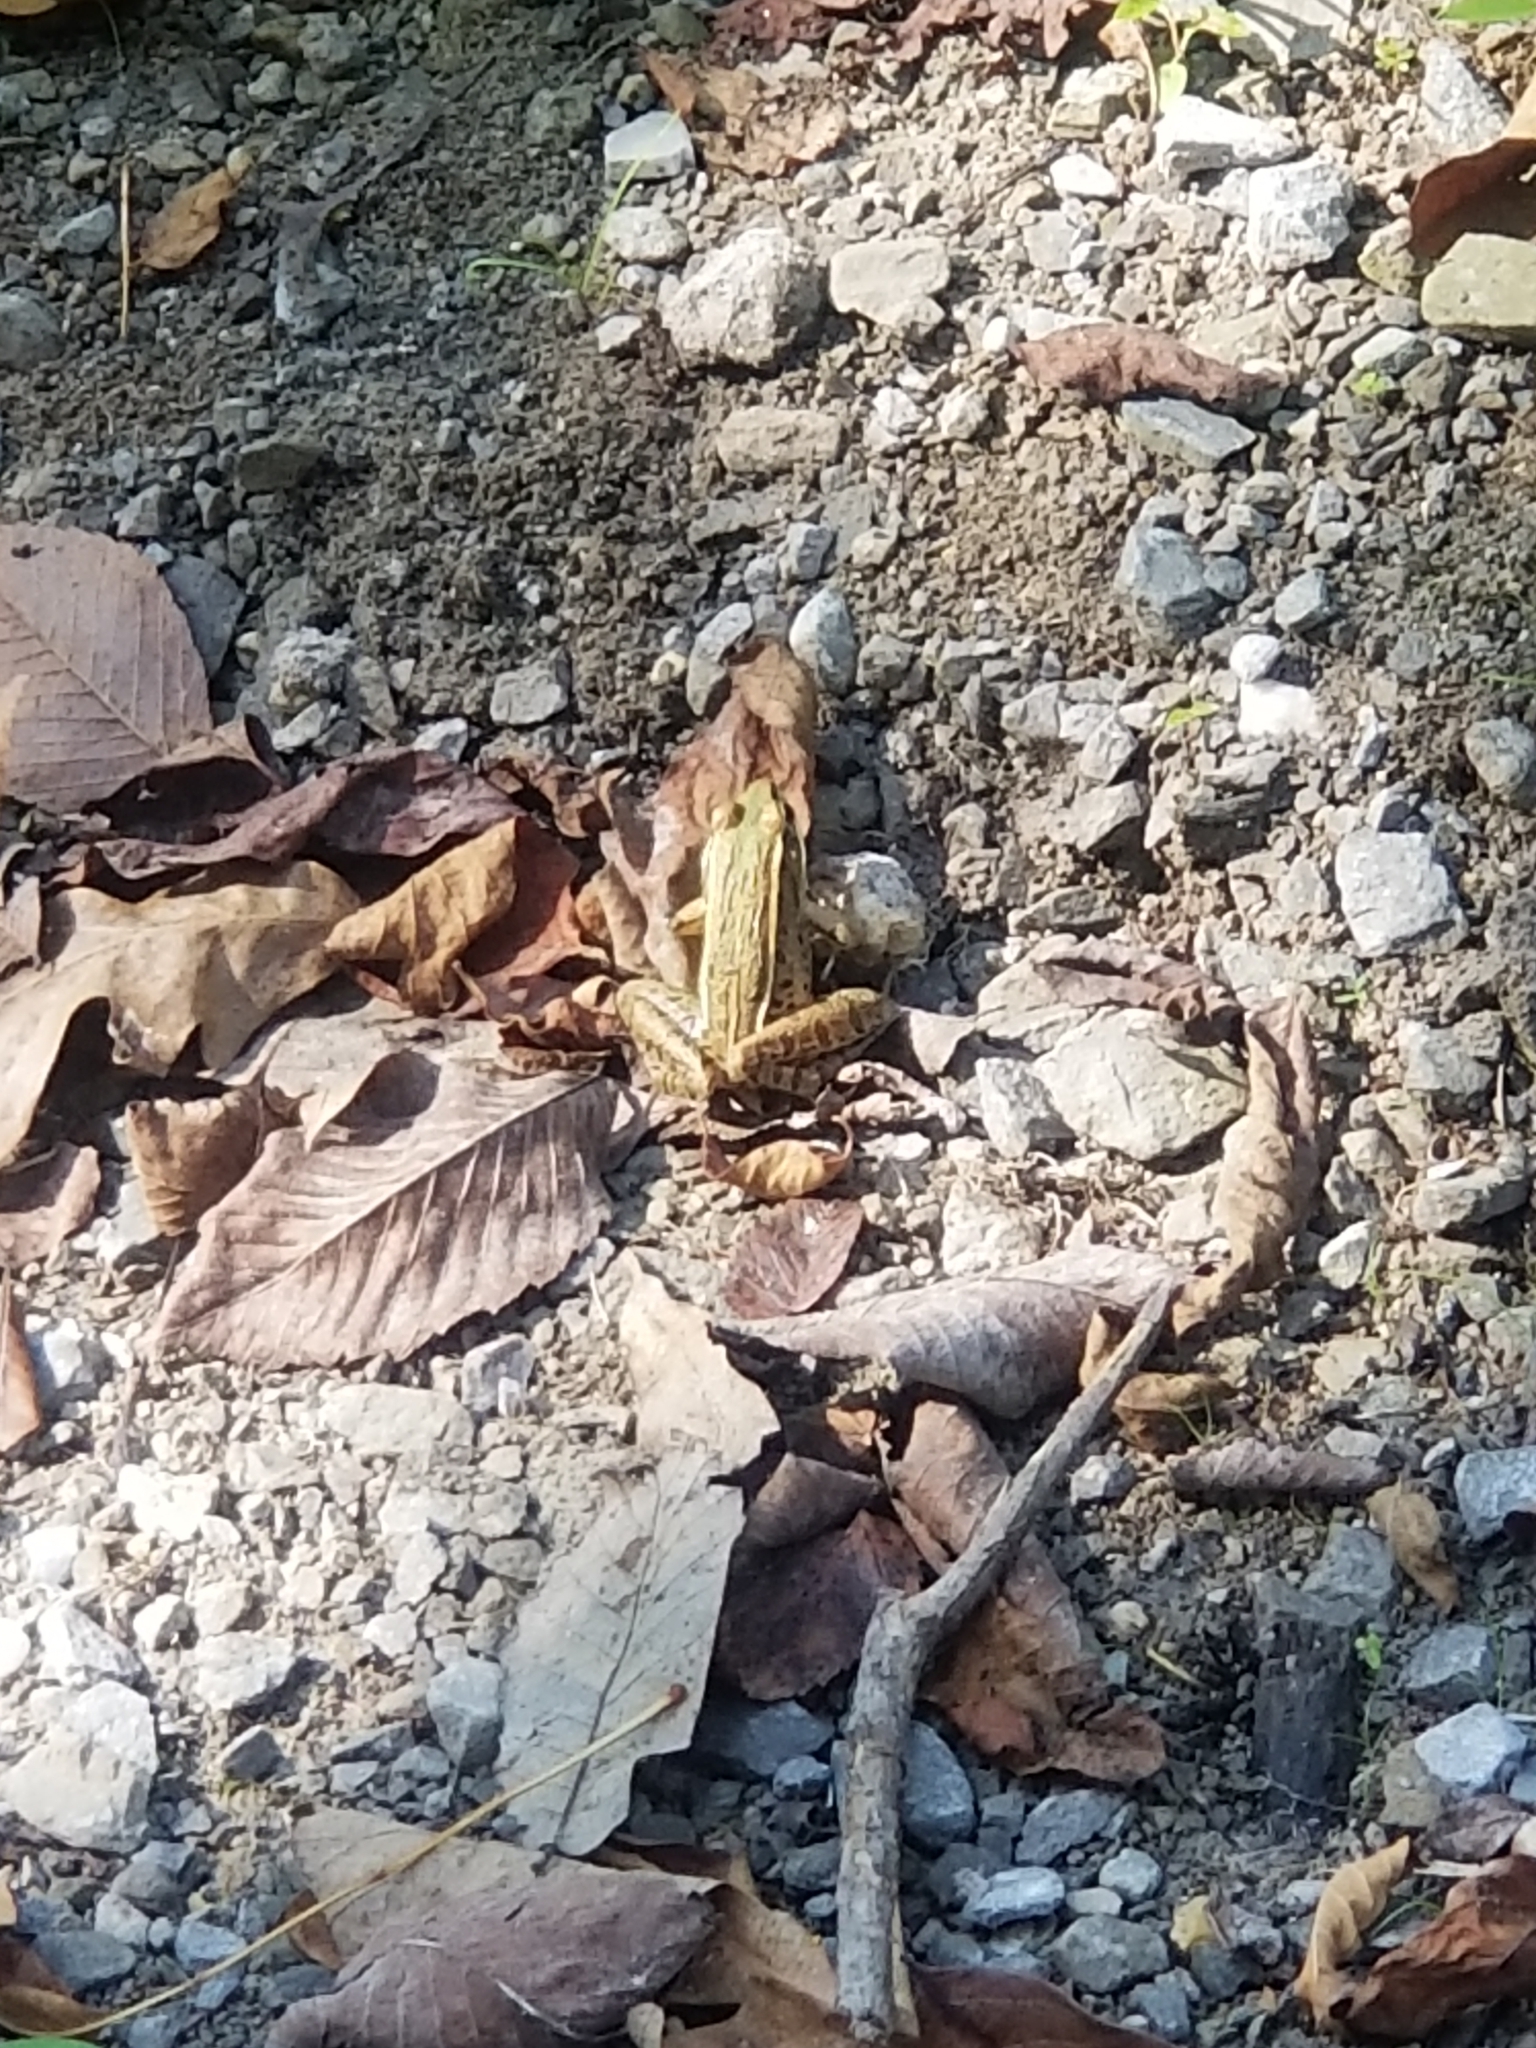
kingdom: Animalia
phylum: Chordata
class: Amphibia
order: Anura
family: Ranidae
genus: Lithobates
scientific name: Lithobates sphenocephalus
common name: Southern leopard frog
